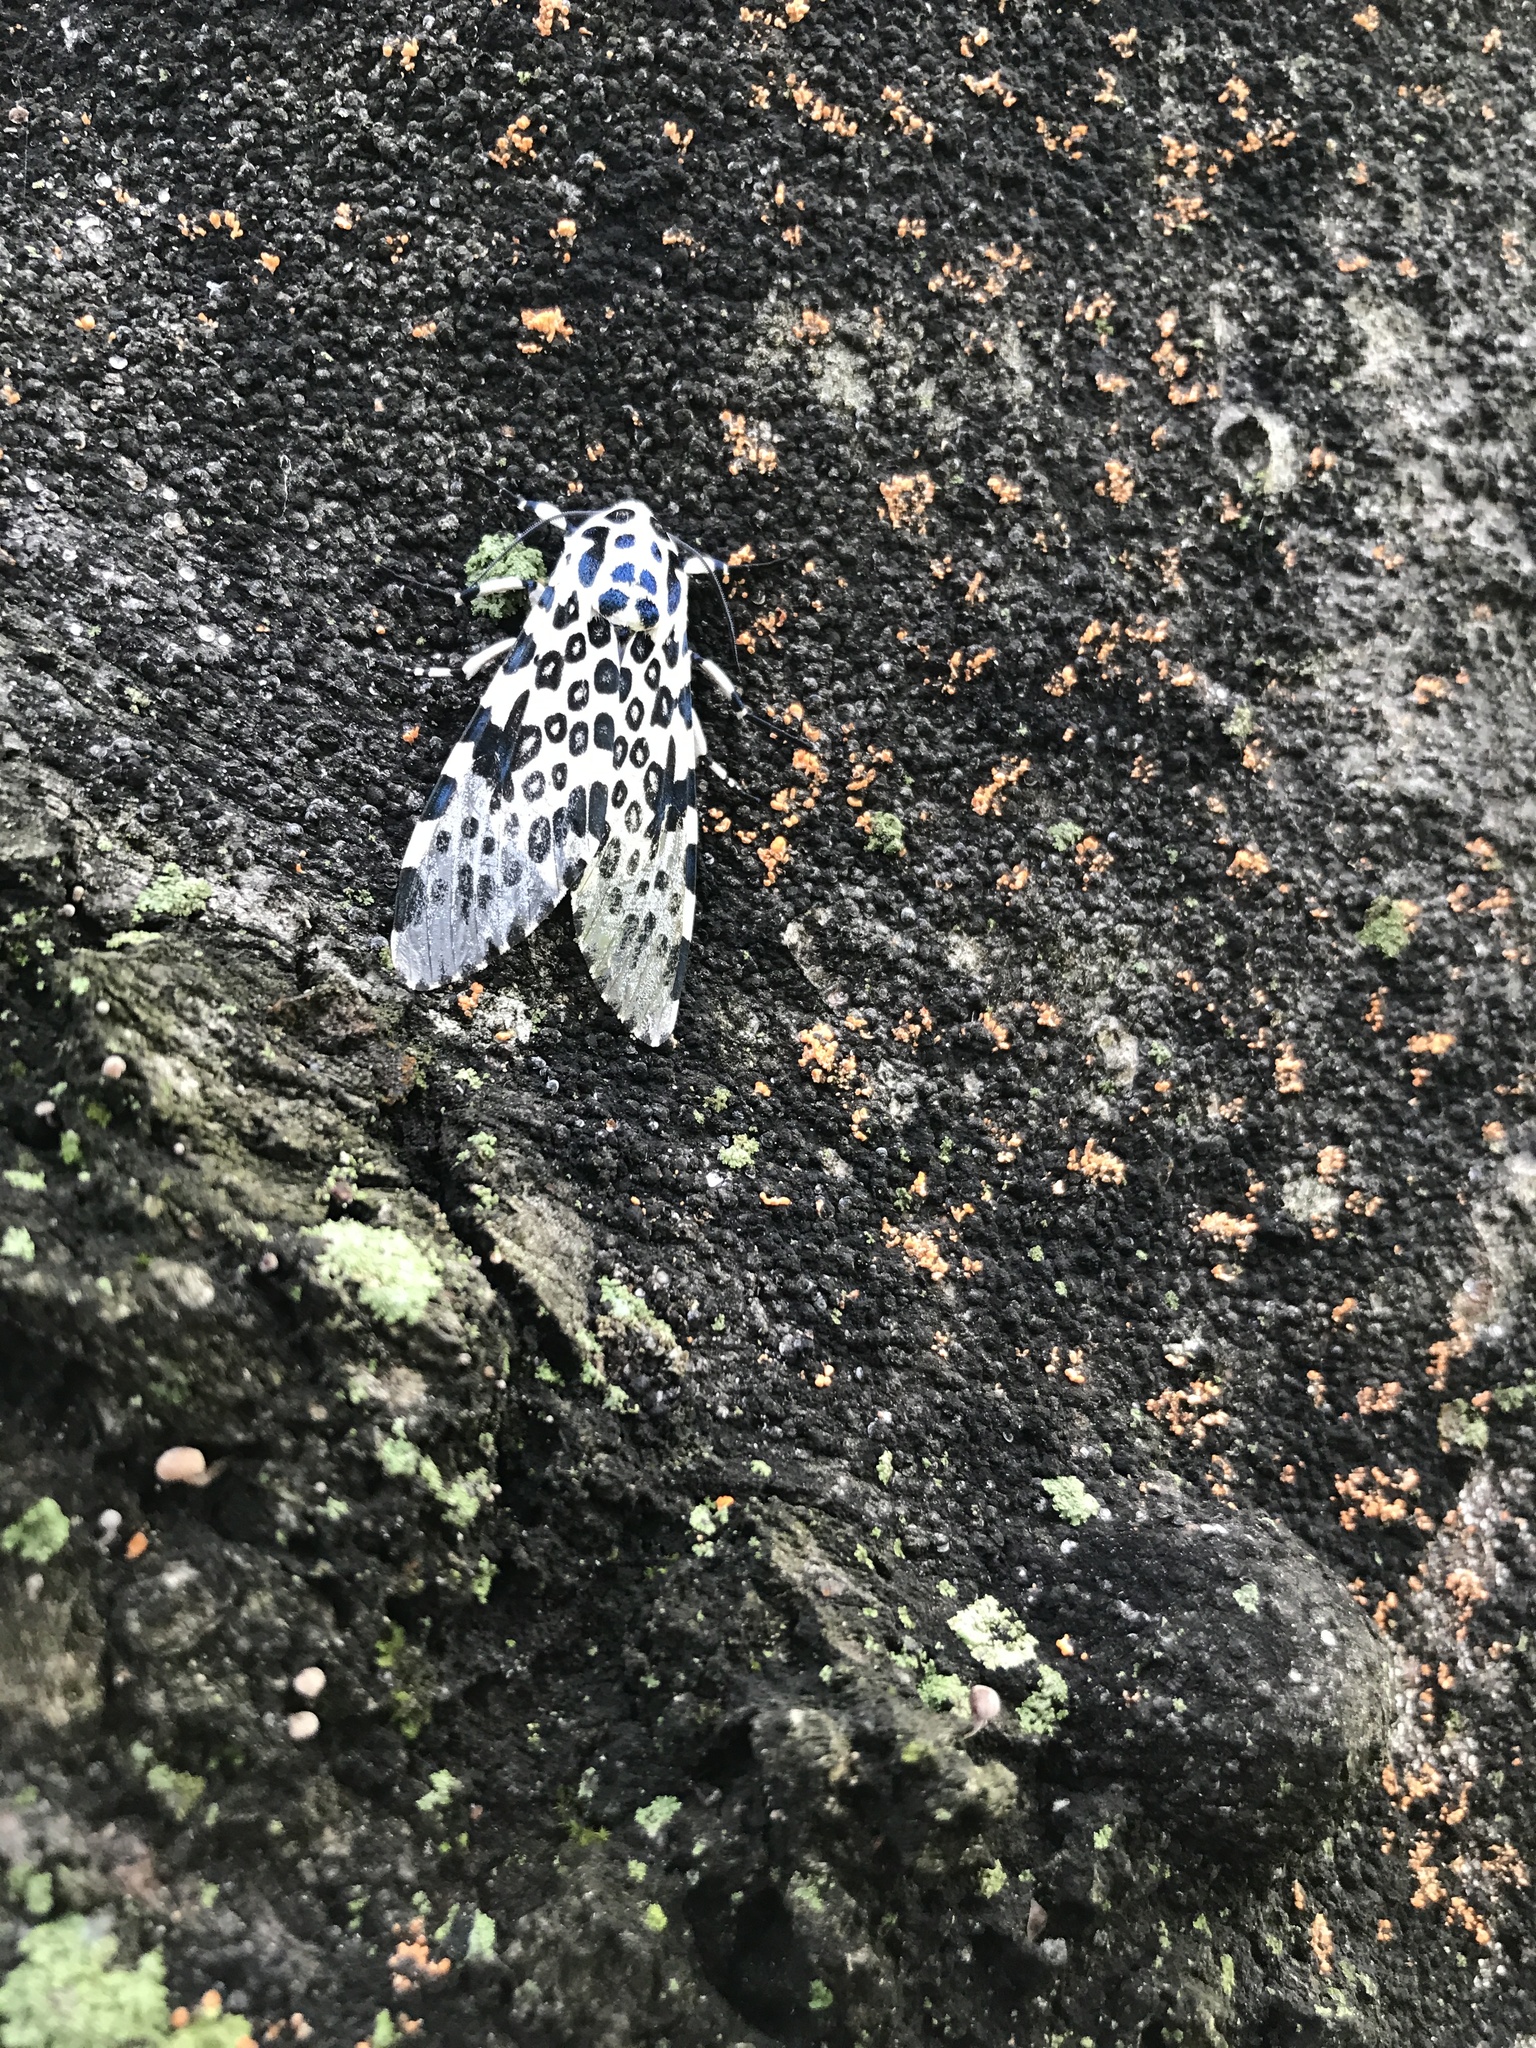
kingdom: Animalia
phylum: Arthropoda
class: Insecta
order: Lepidoptera
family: Erebidae
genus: Hypercompe
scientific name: Hypercompe scribonia
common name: Giant leopard moth
